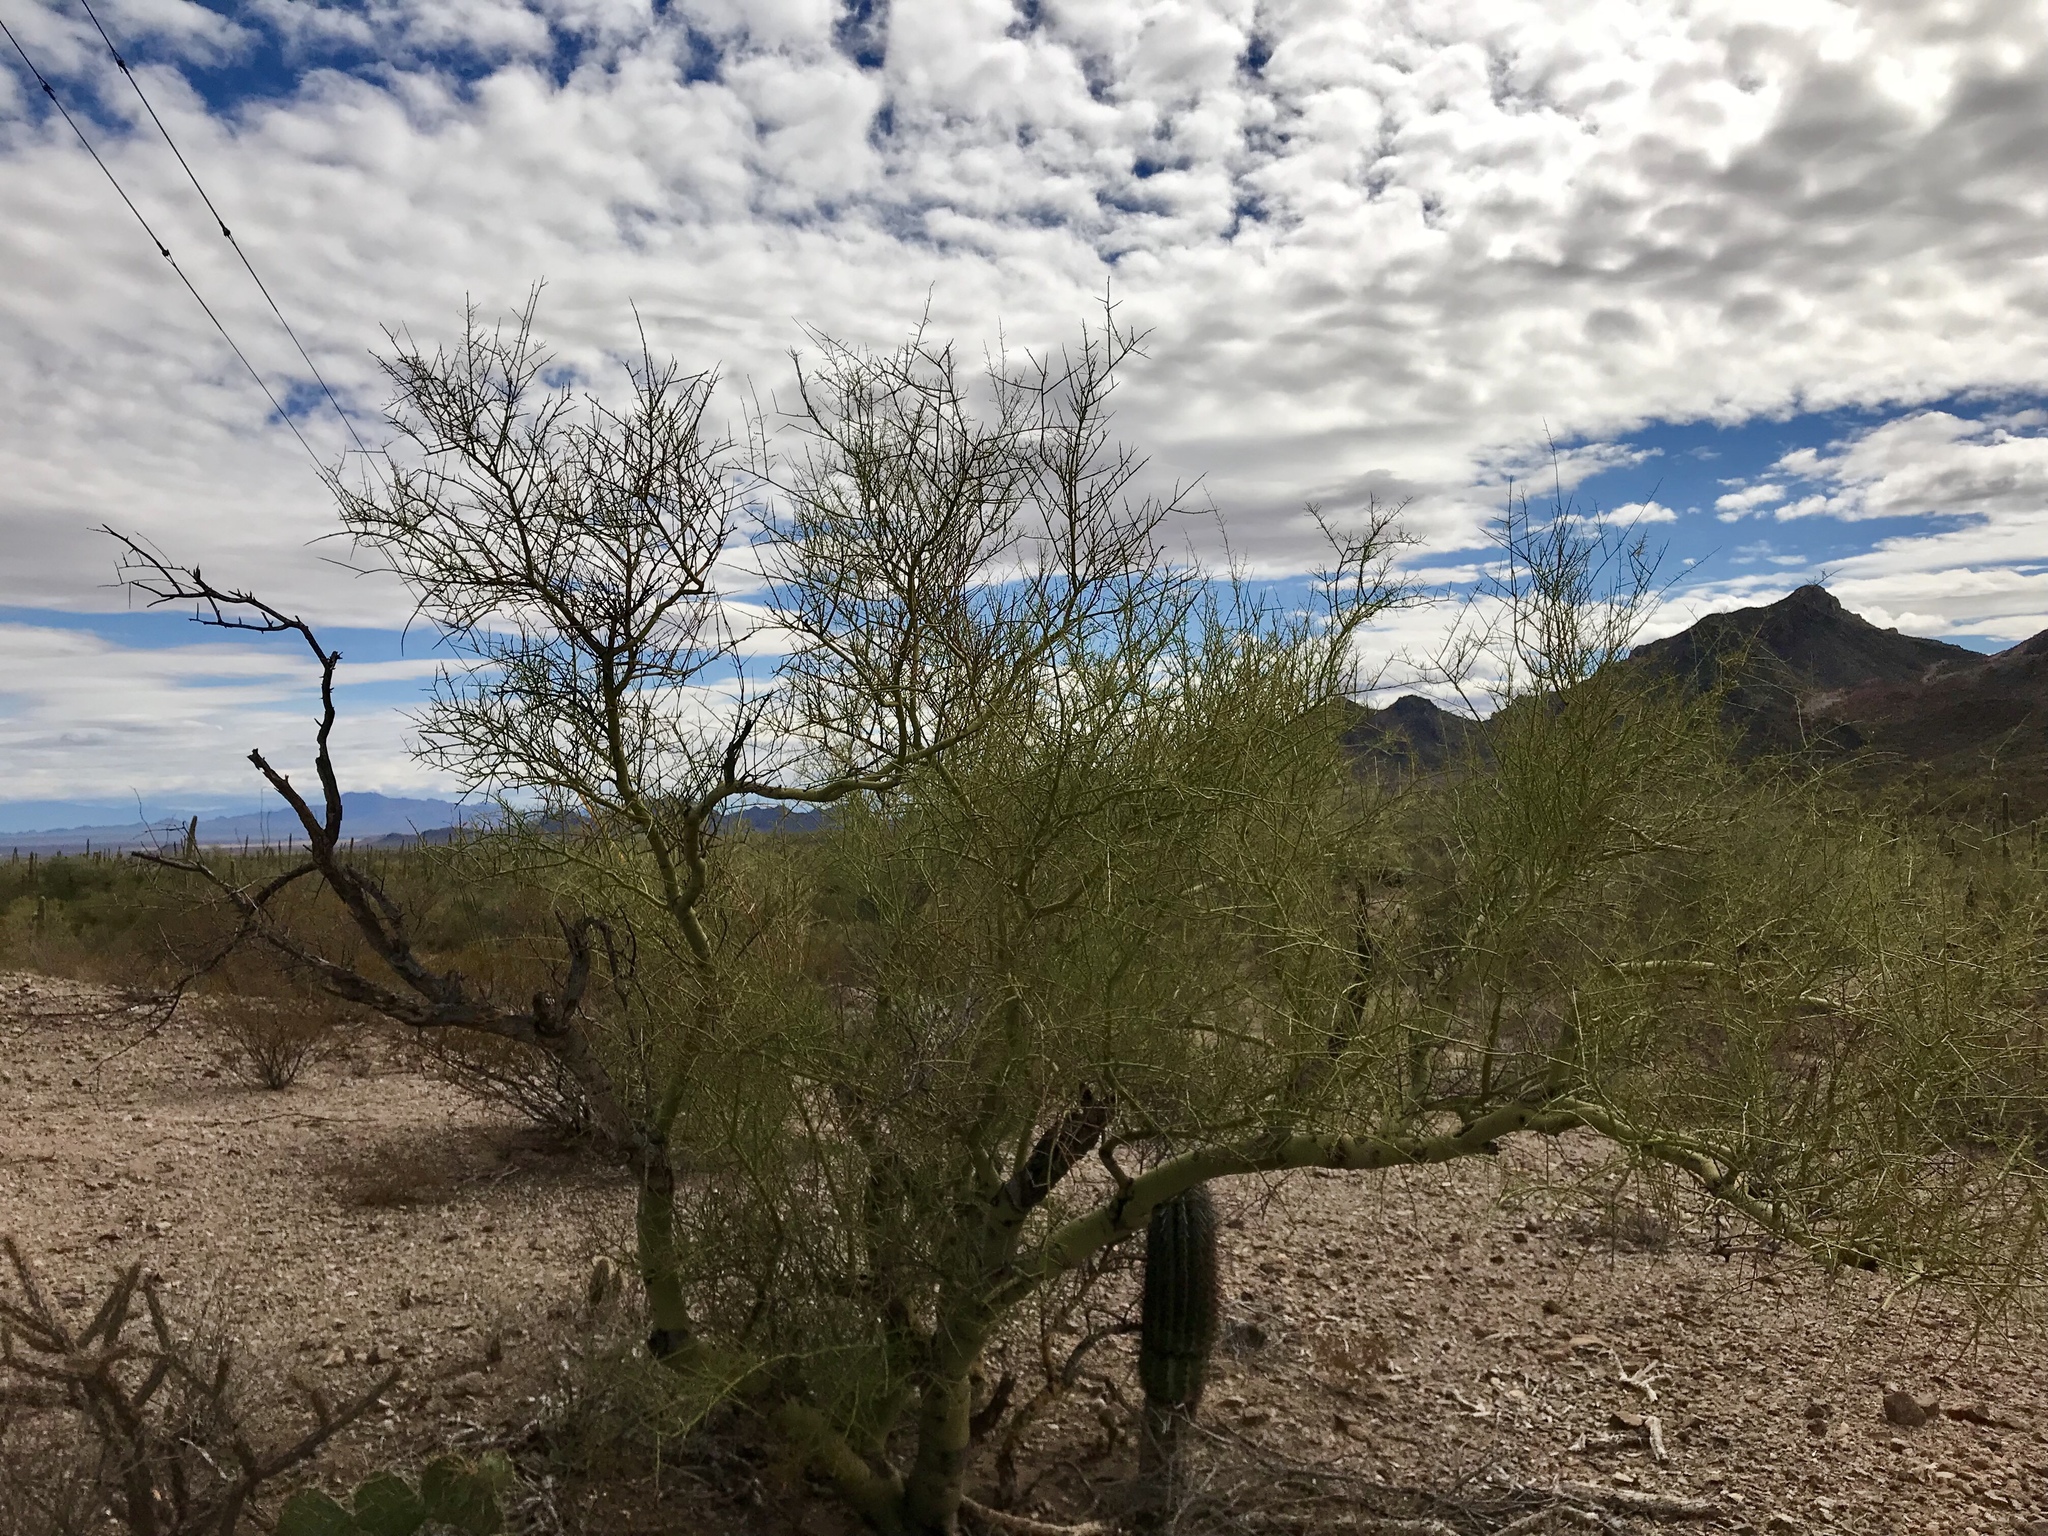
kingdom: Plantae
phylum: Tracheophyta
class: Magnoliopsida
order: Fabales
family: Fabaceae
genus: Parkinsonia
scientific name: Parkinsonia microphylla
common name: Yellow paloverde
